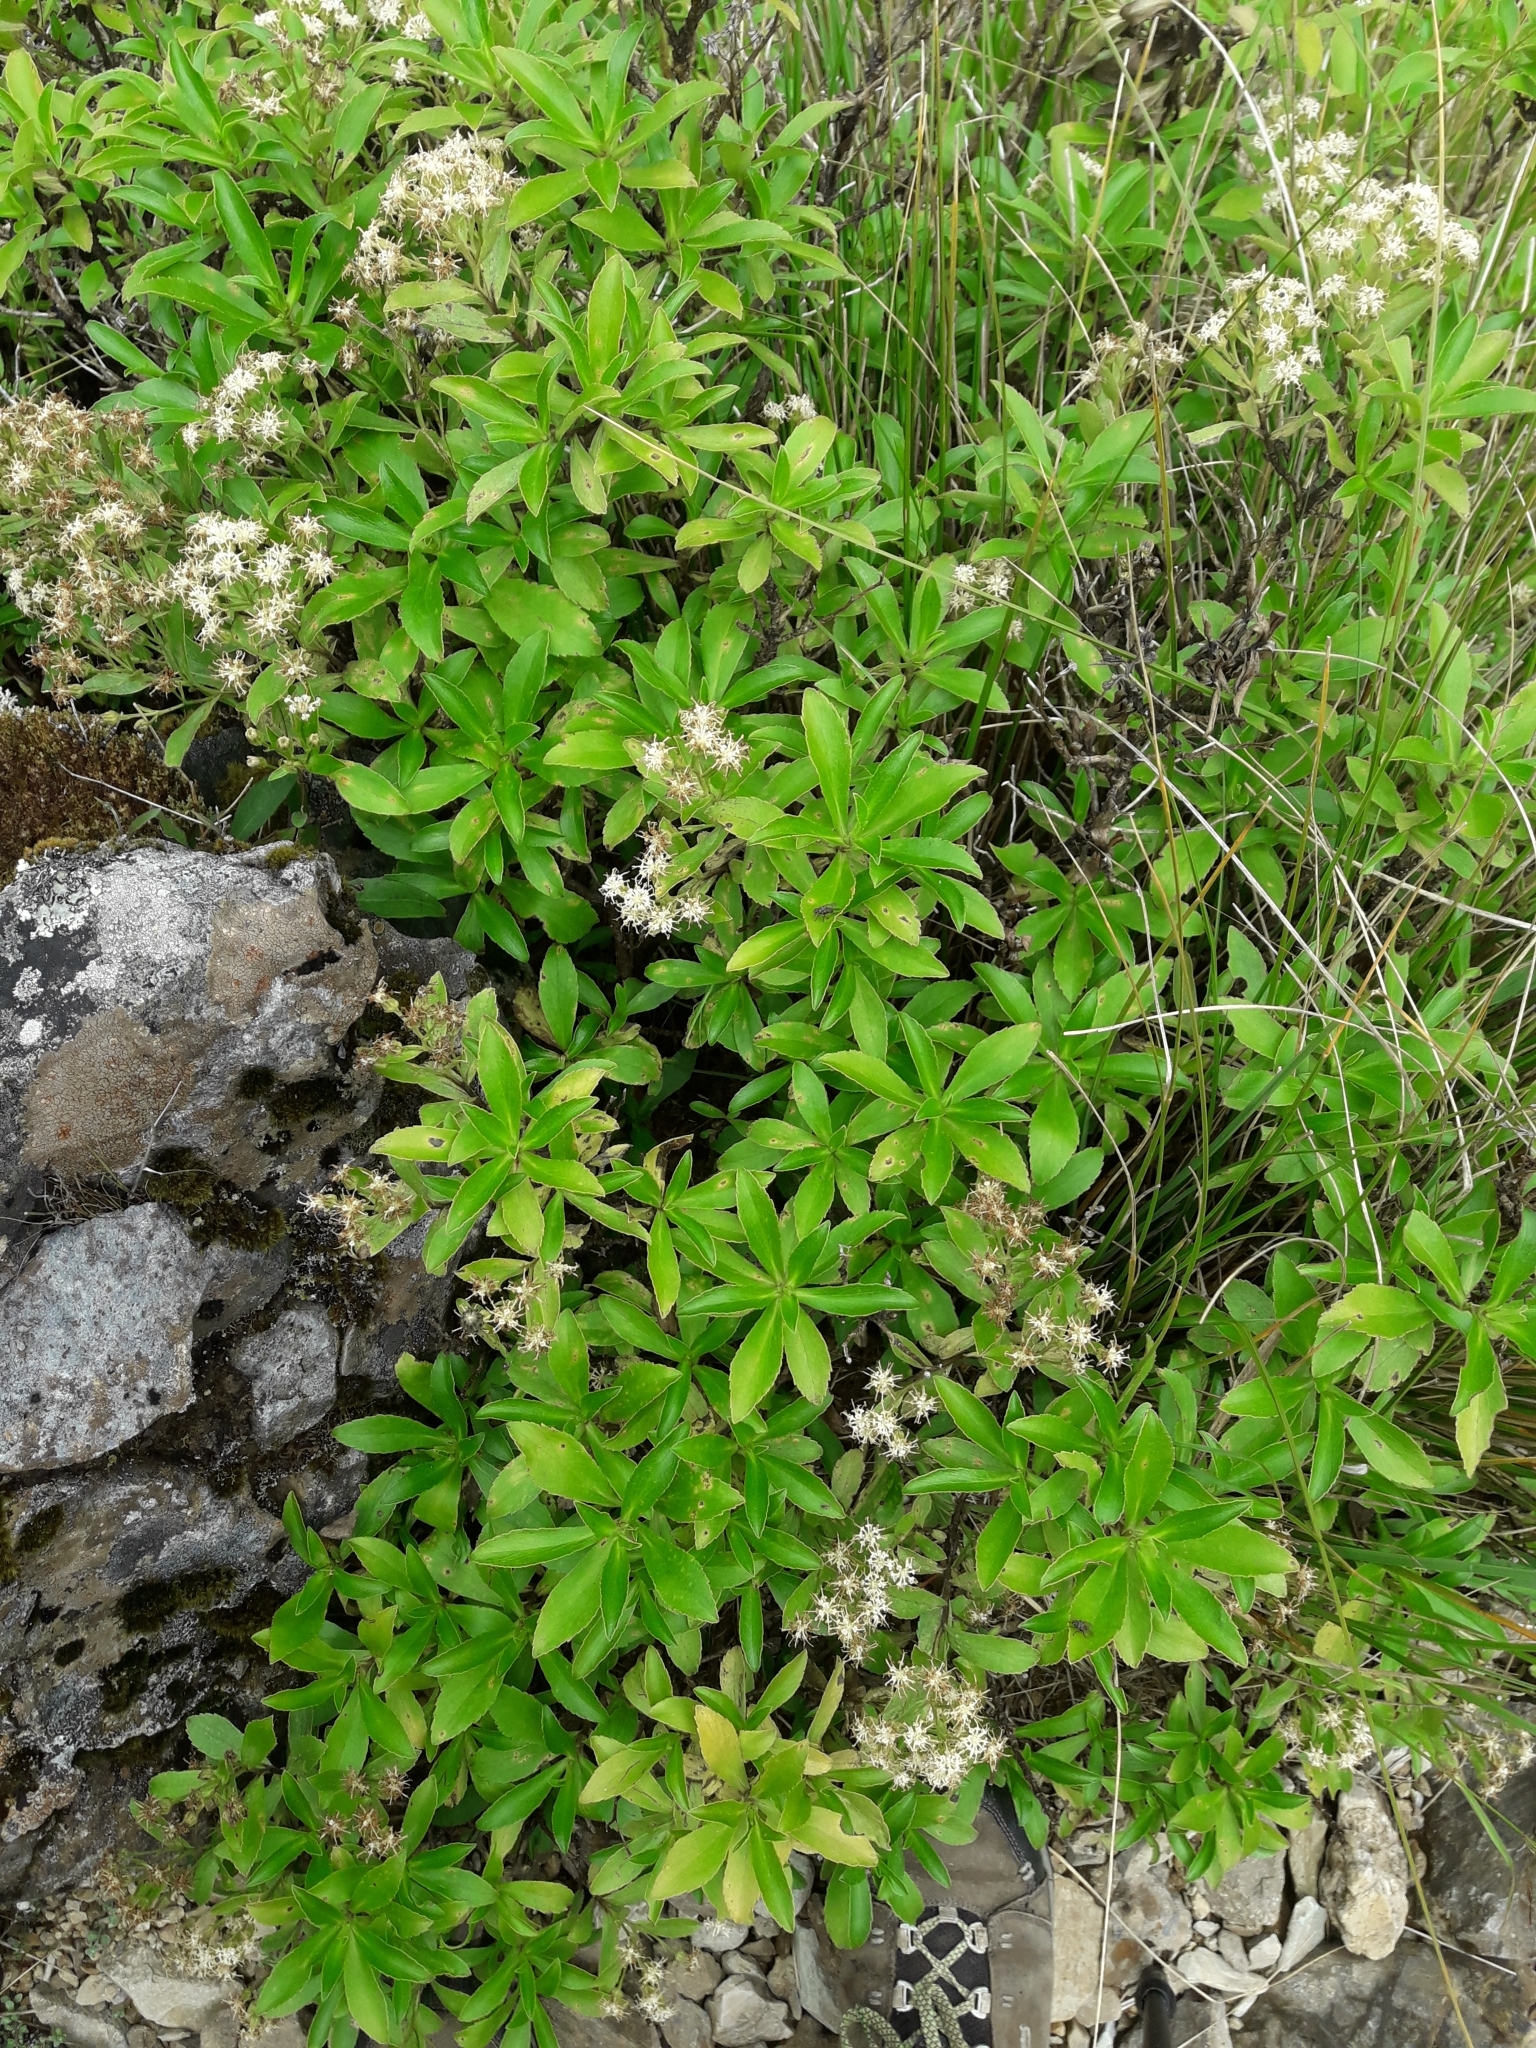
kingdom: Plantae
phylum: Tracheophyta
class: Magnoliopsida
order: Asterales
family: Asteraceae
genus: Traversia
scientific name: Traversia baccharoides
